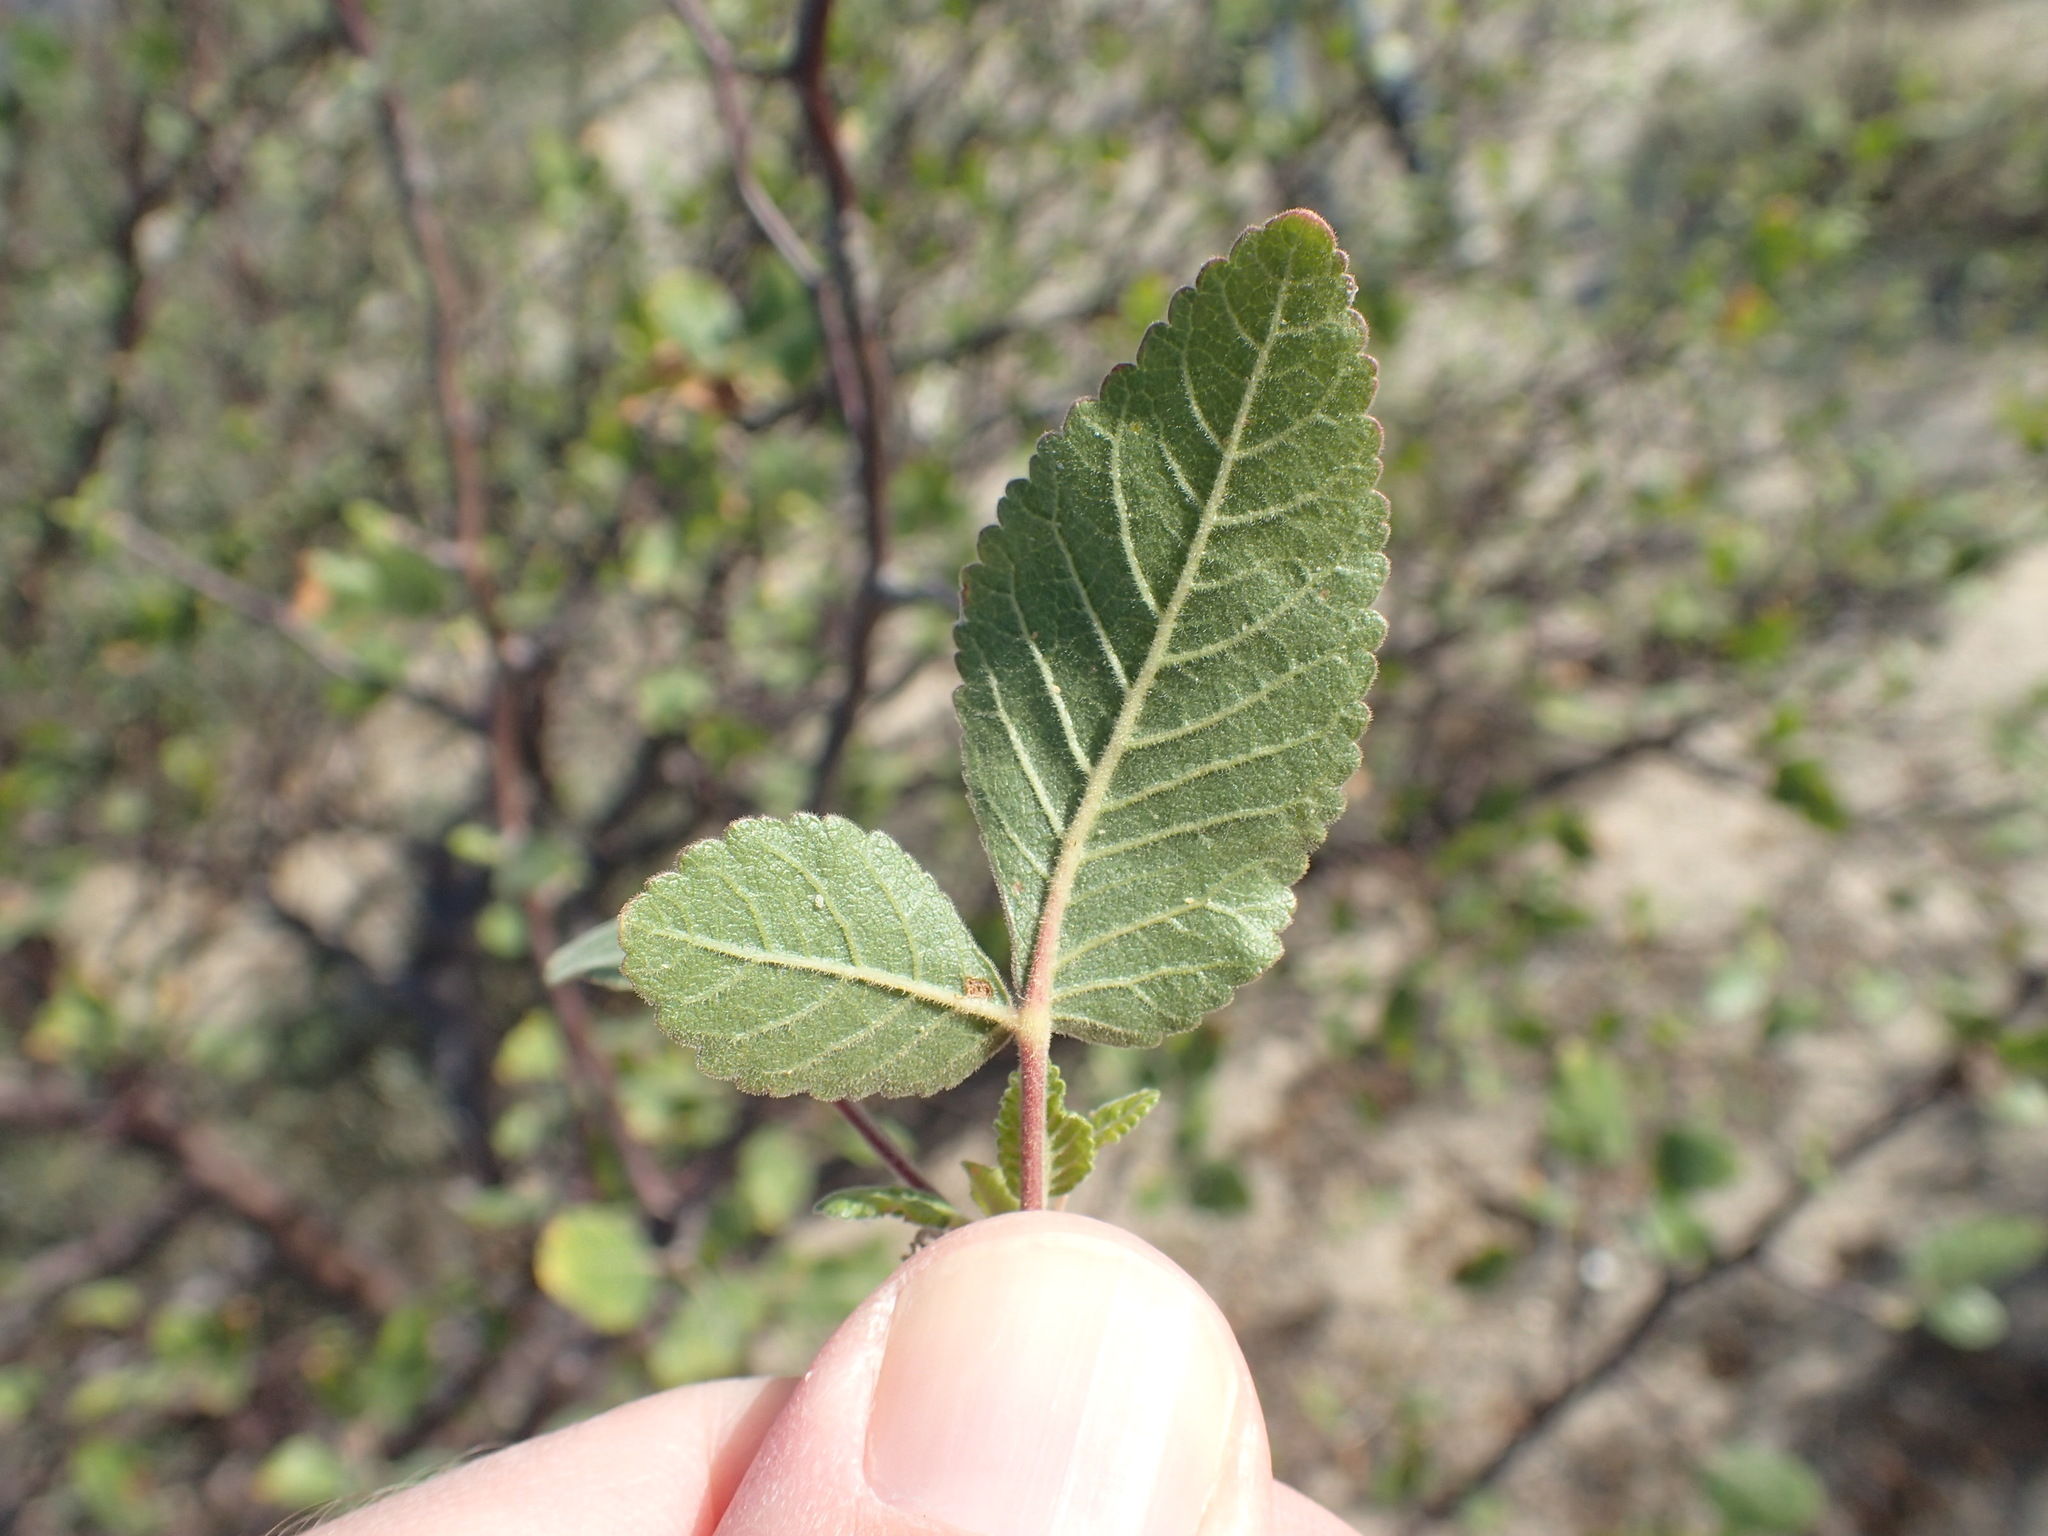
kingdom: Plantae
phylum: Tracheophyta
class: Magnoliopsida
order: Sapindales
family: Burseraceae
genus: Bursera
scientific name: Bursera hindsiana
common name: Red elephant tree
